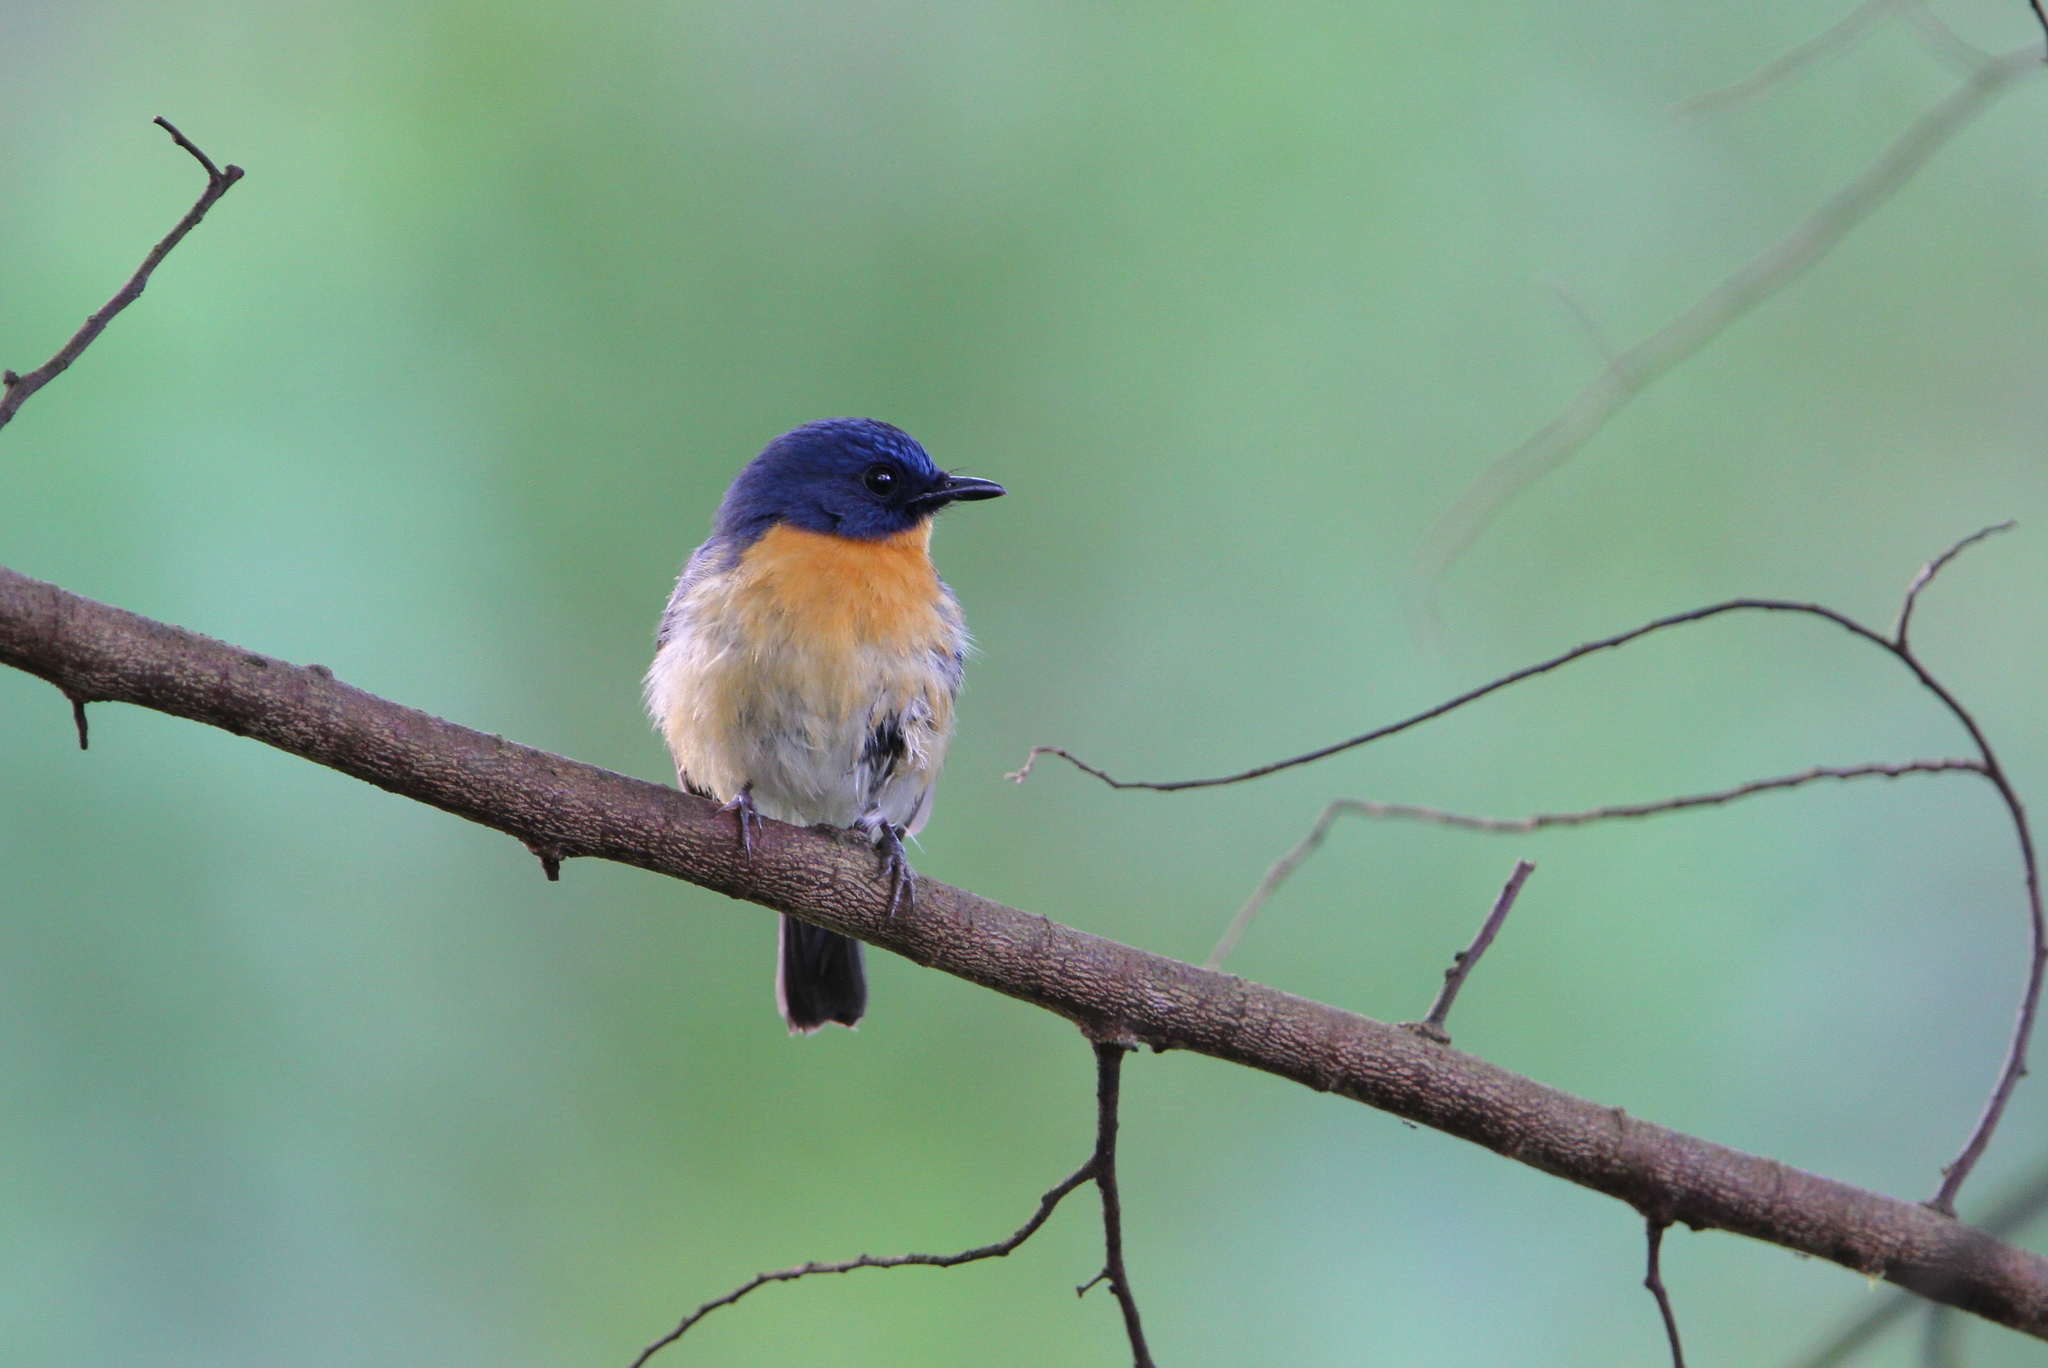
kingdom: Animalia
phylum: Chordata
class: Aves
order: Passeriformes
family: Muscicapidae
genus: Cyornis
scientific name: Cyornis tickelliae
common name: Tickell's blue flycatcher
